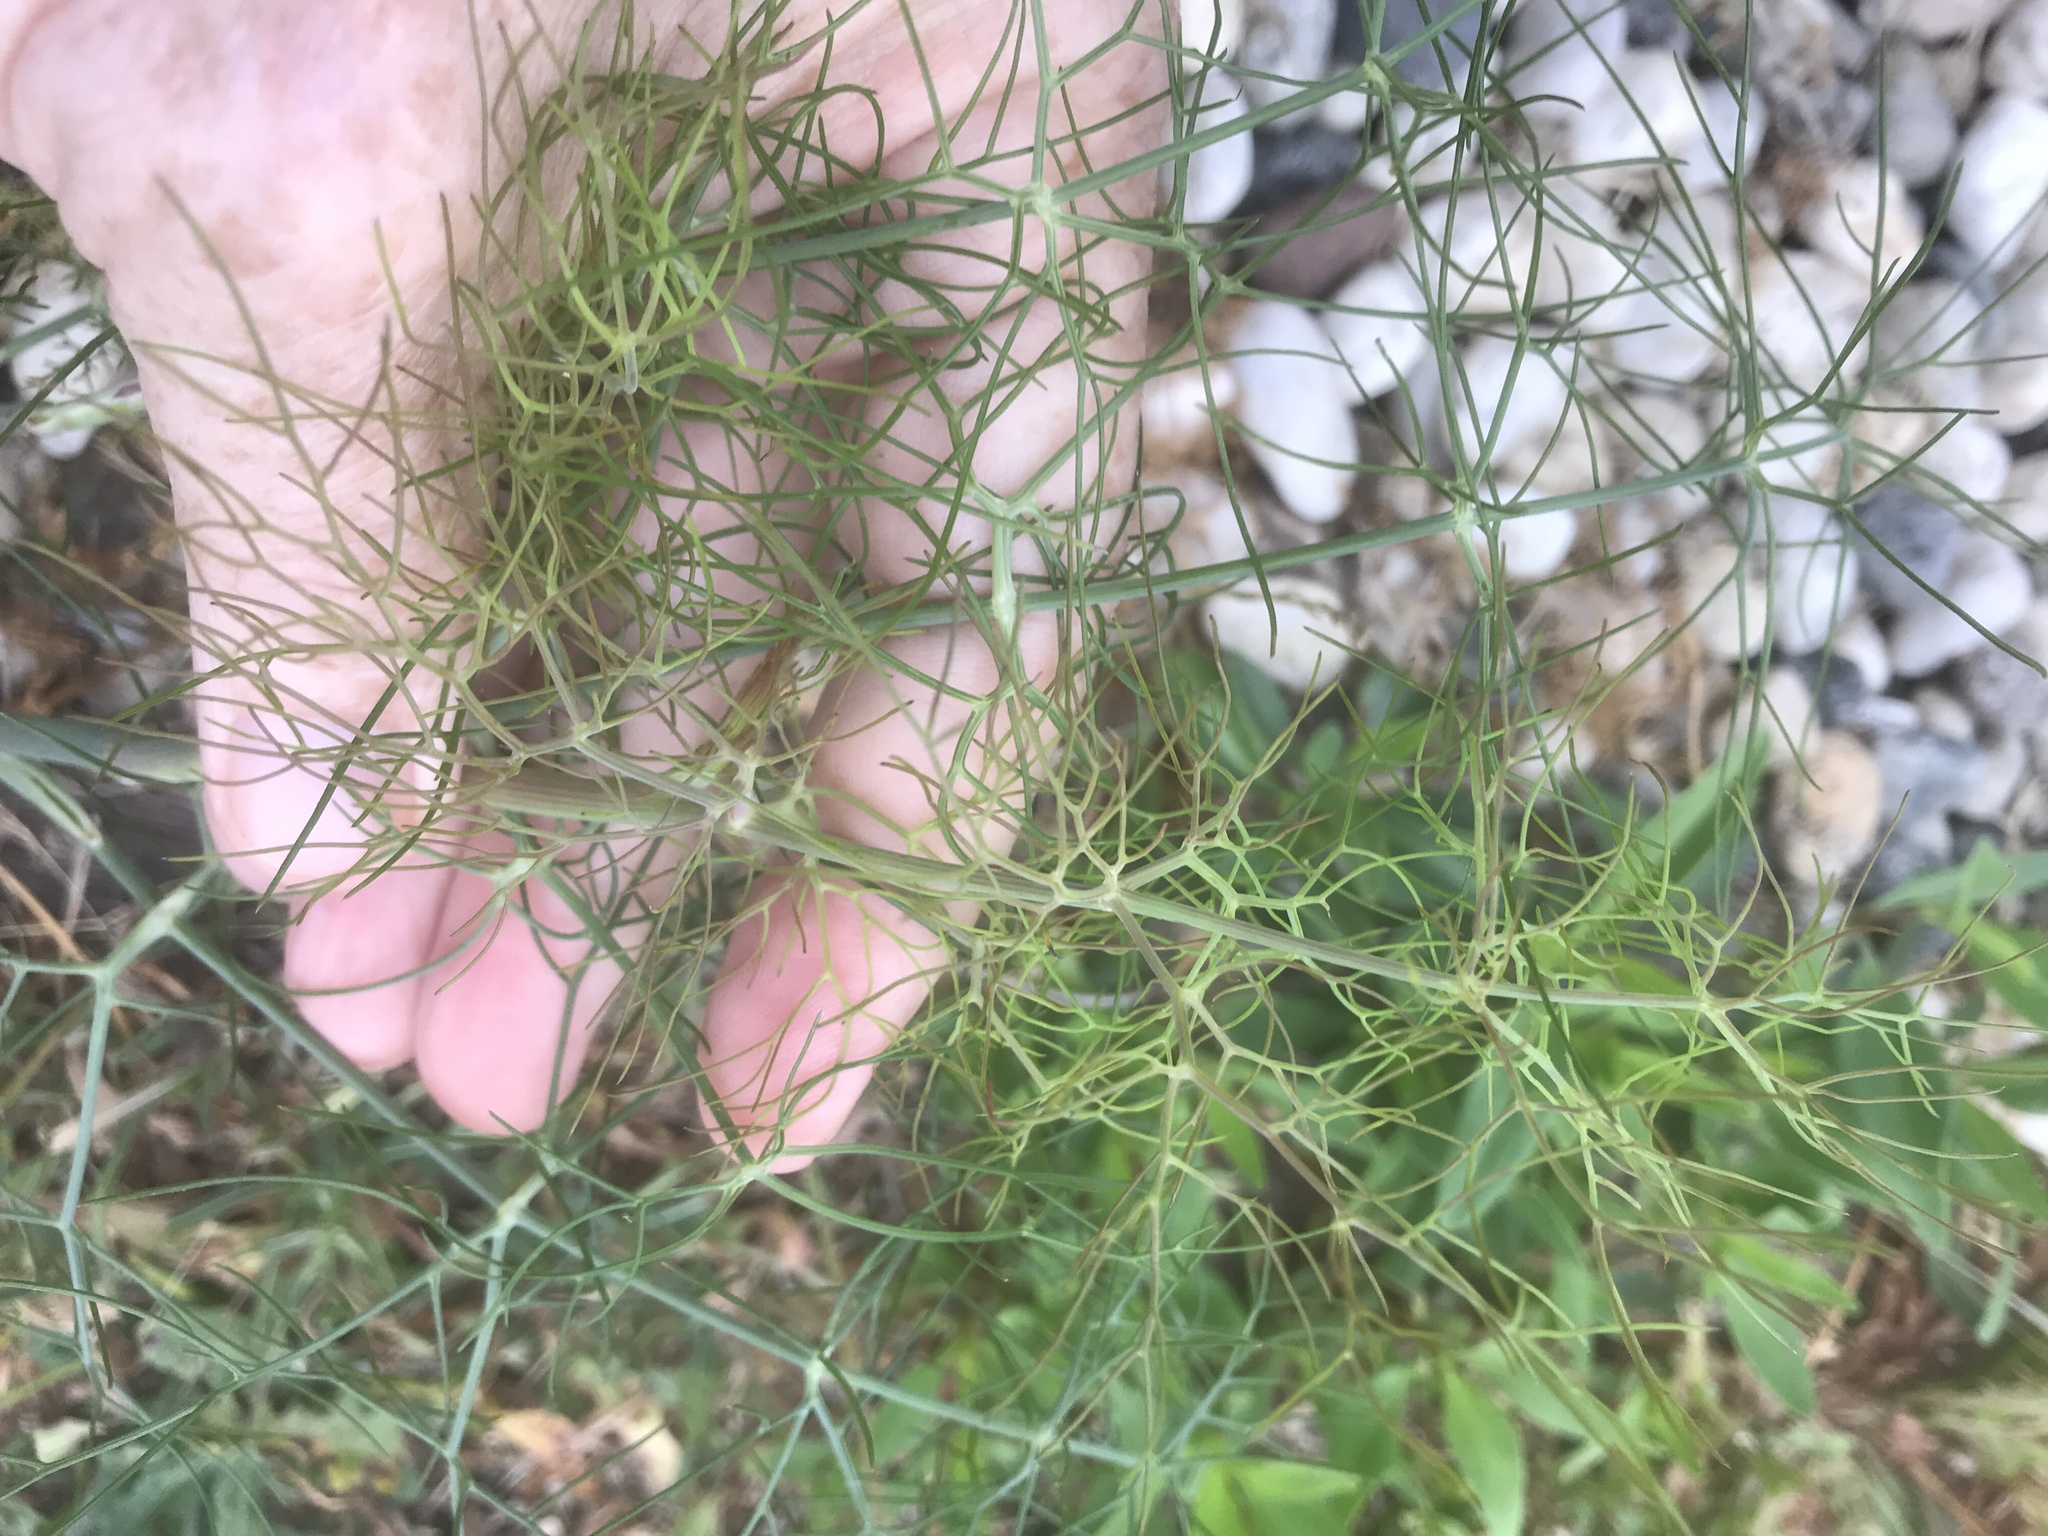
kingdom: Plantae
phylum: Tracheophyta
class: Magnoliopsida
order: Apiales
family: Apiaceae
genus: Foeniculum
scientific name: Foeniculum vulgare
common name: Fennel
